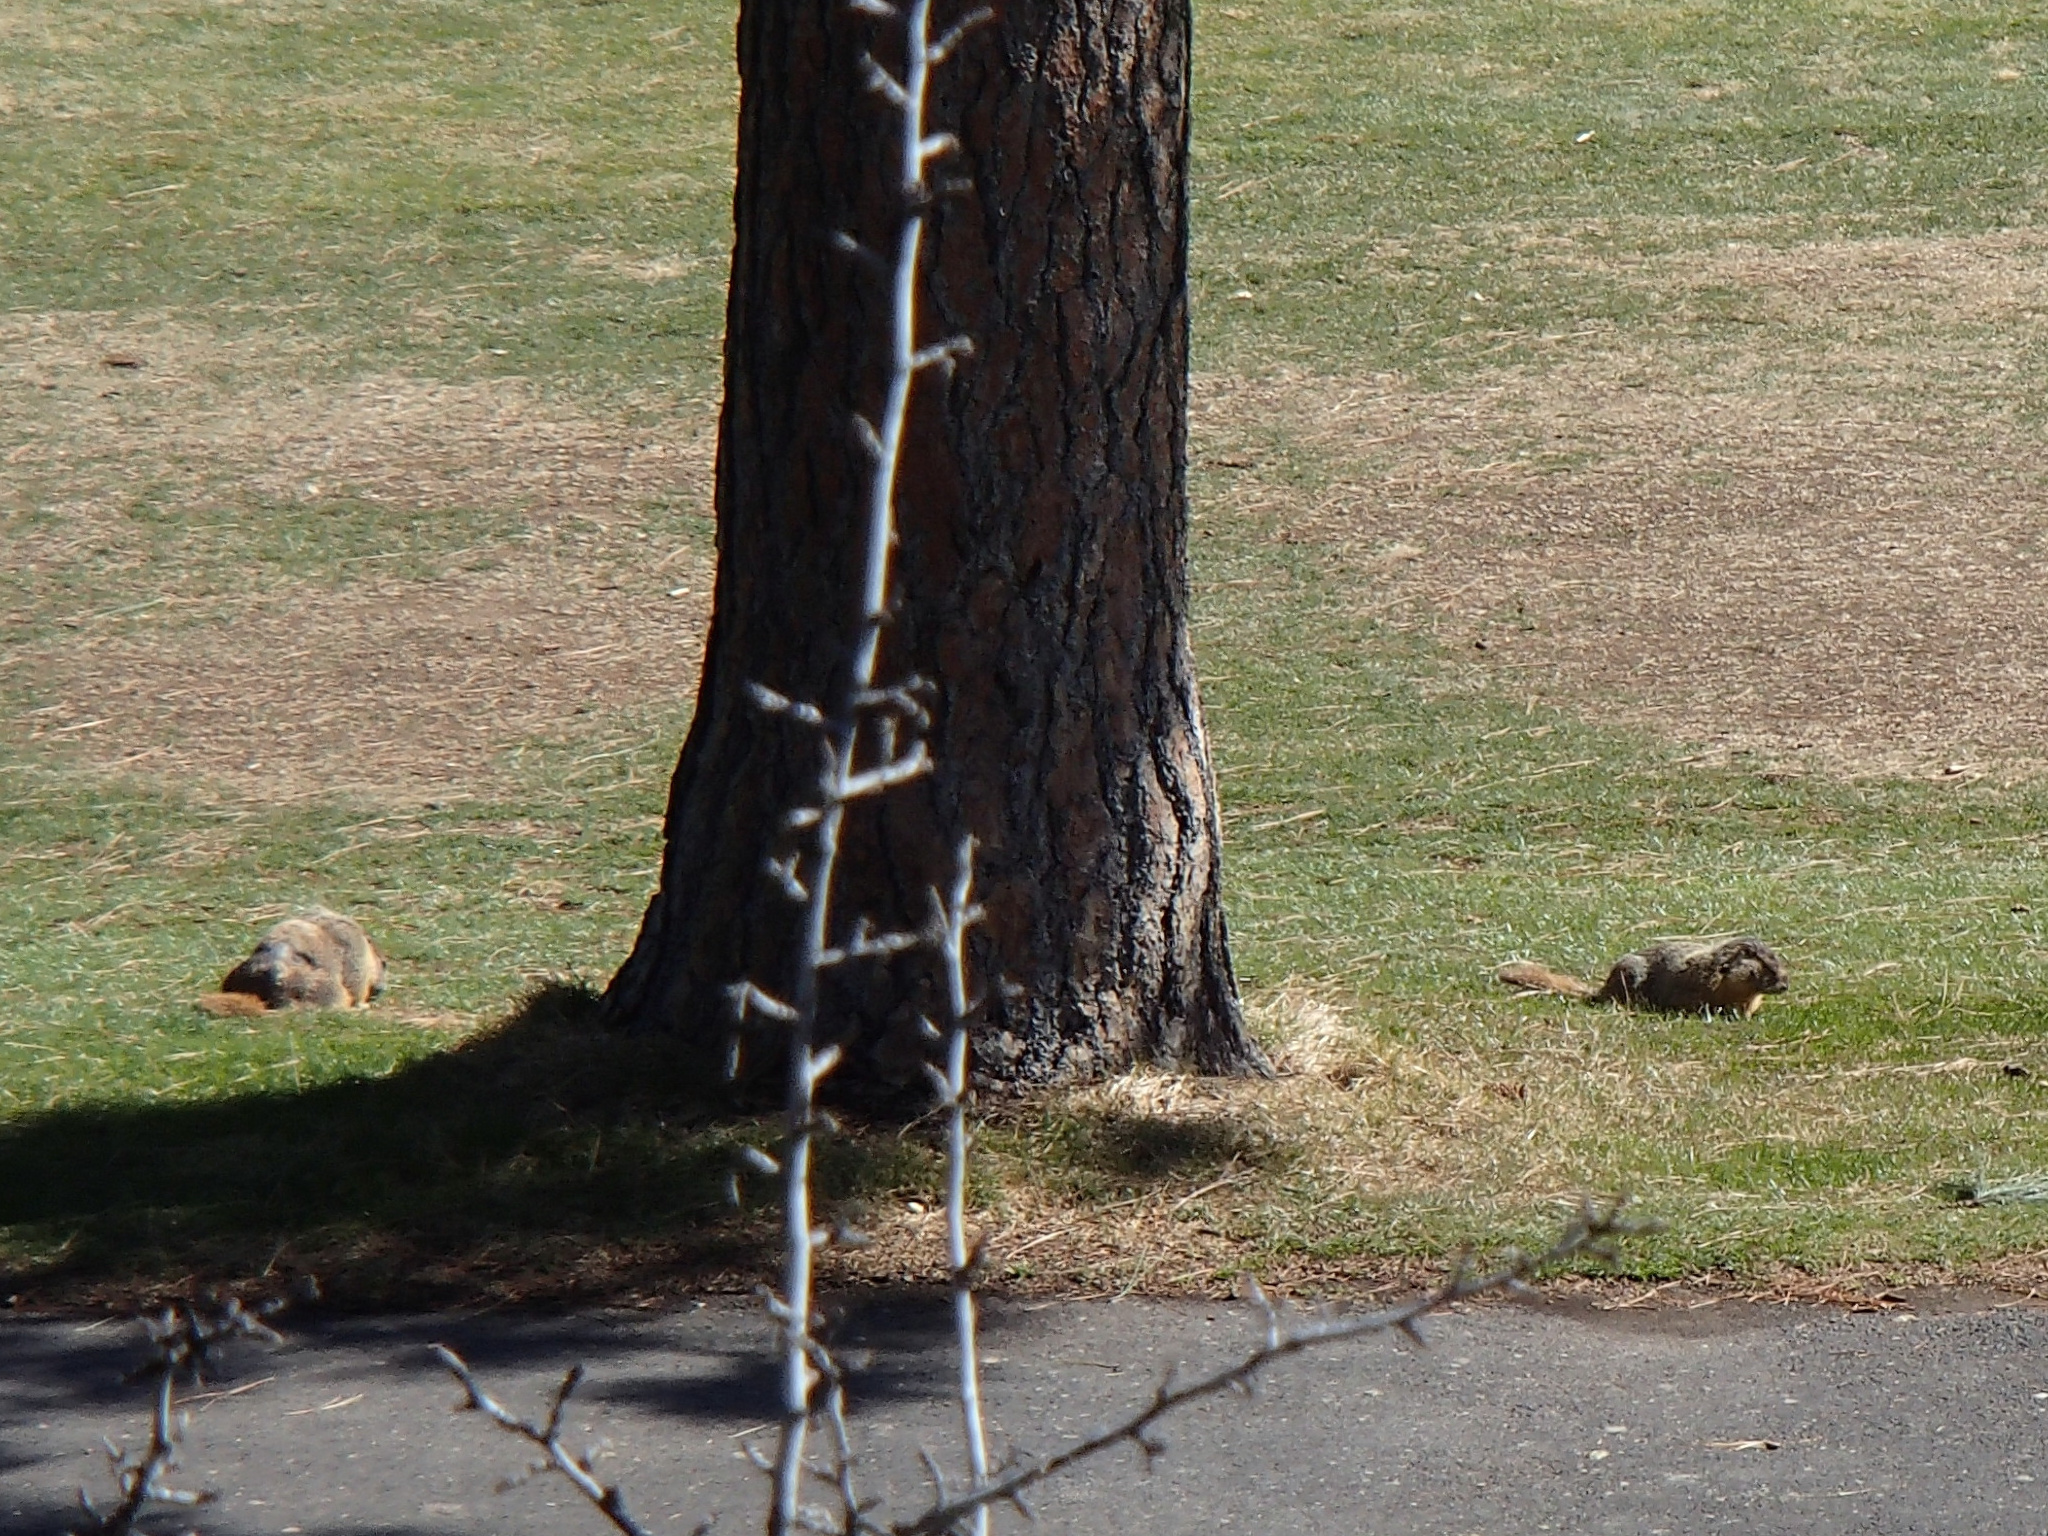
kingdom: Animalia
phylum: Chordata
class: Mammalia
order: Rodentia
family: Sciuridae
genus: Marmota
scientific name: Marmota flaviventris
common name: Yellow-bellied marmot
